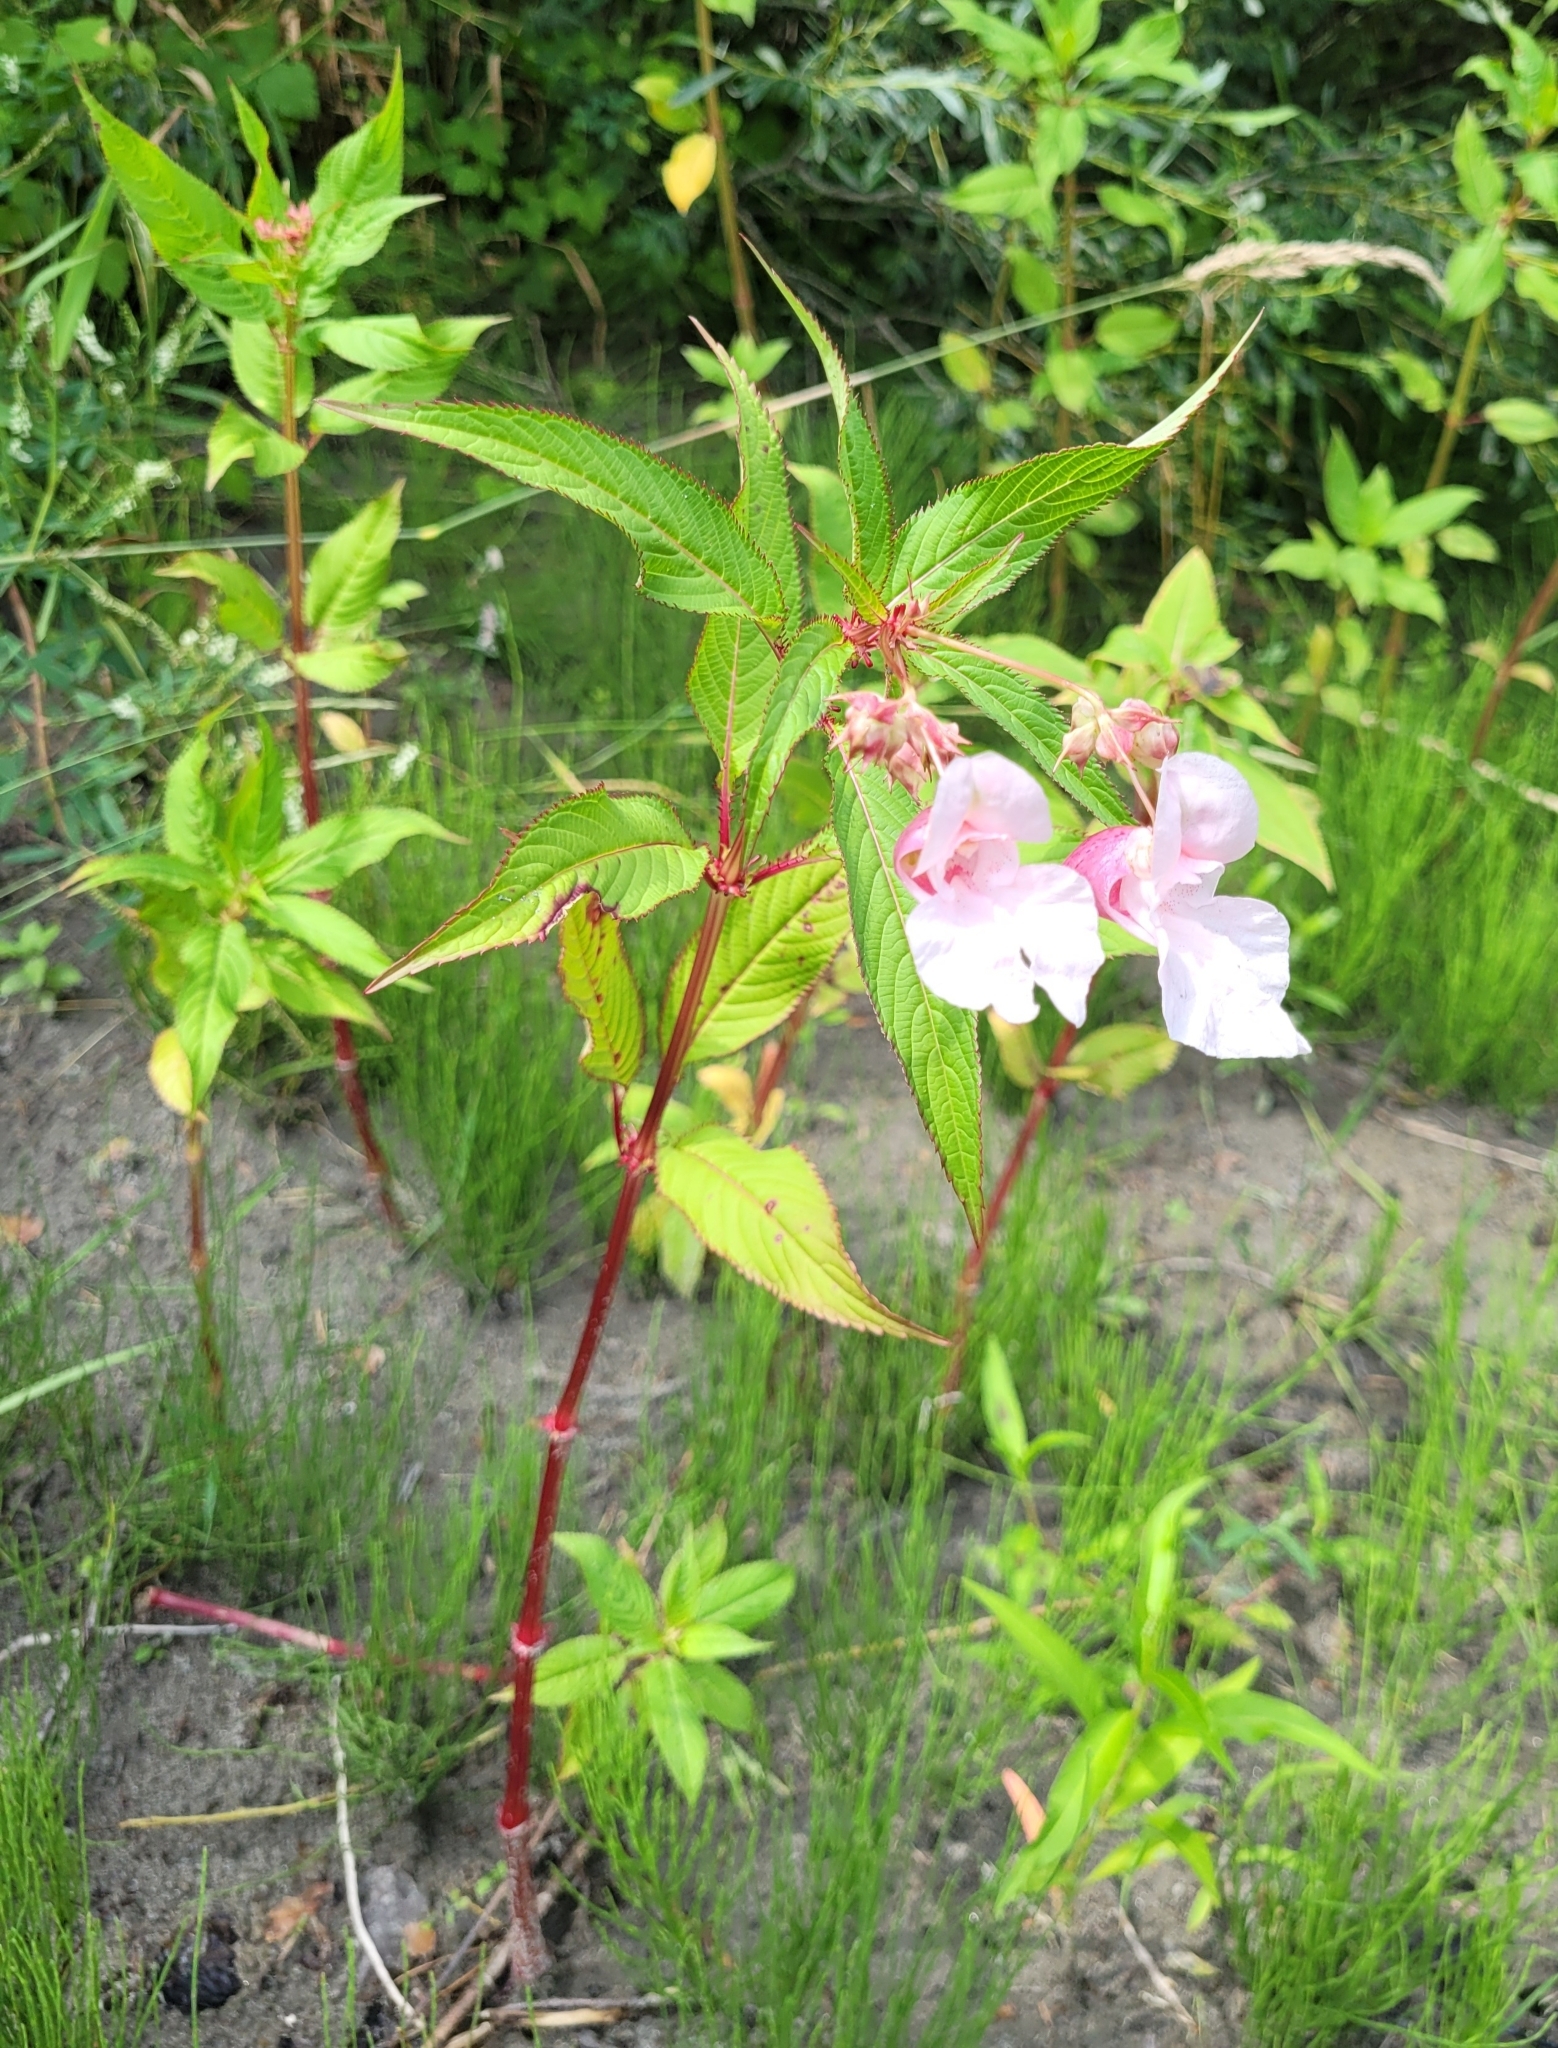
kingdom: Plantae
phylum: Tracheophyta
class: Magnoliopsida
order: Ericales
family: Balsaminaceae
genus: Impatiens
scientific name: Impatiens glandulifera
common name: Himalayan balsam
